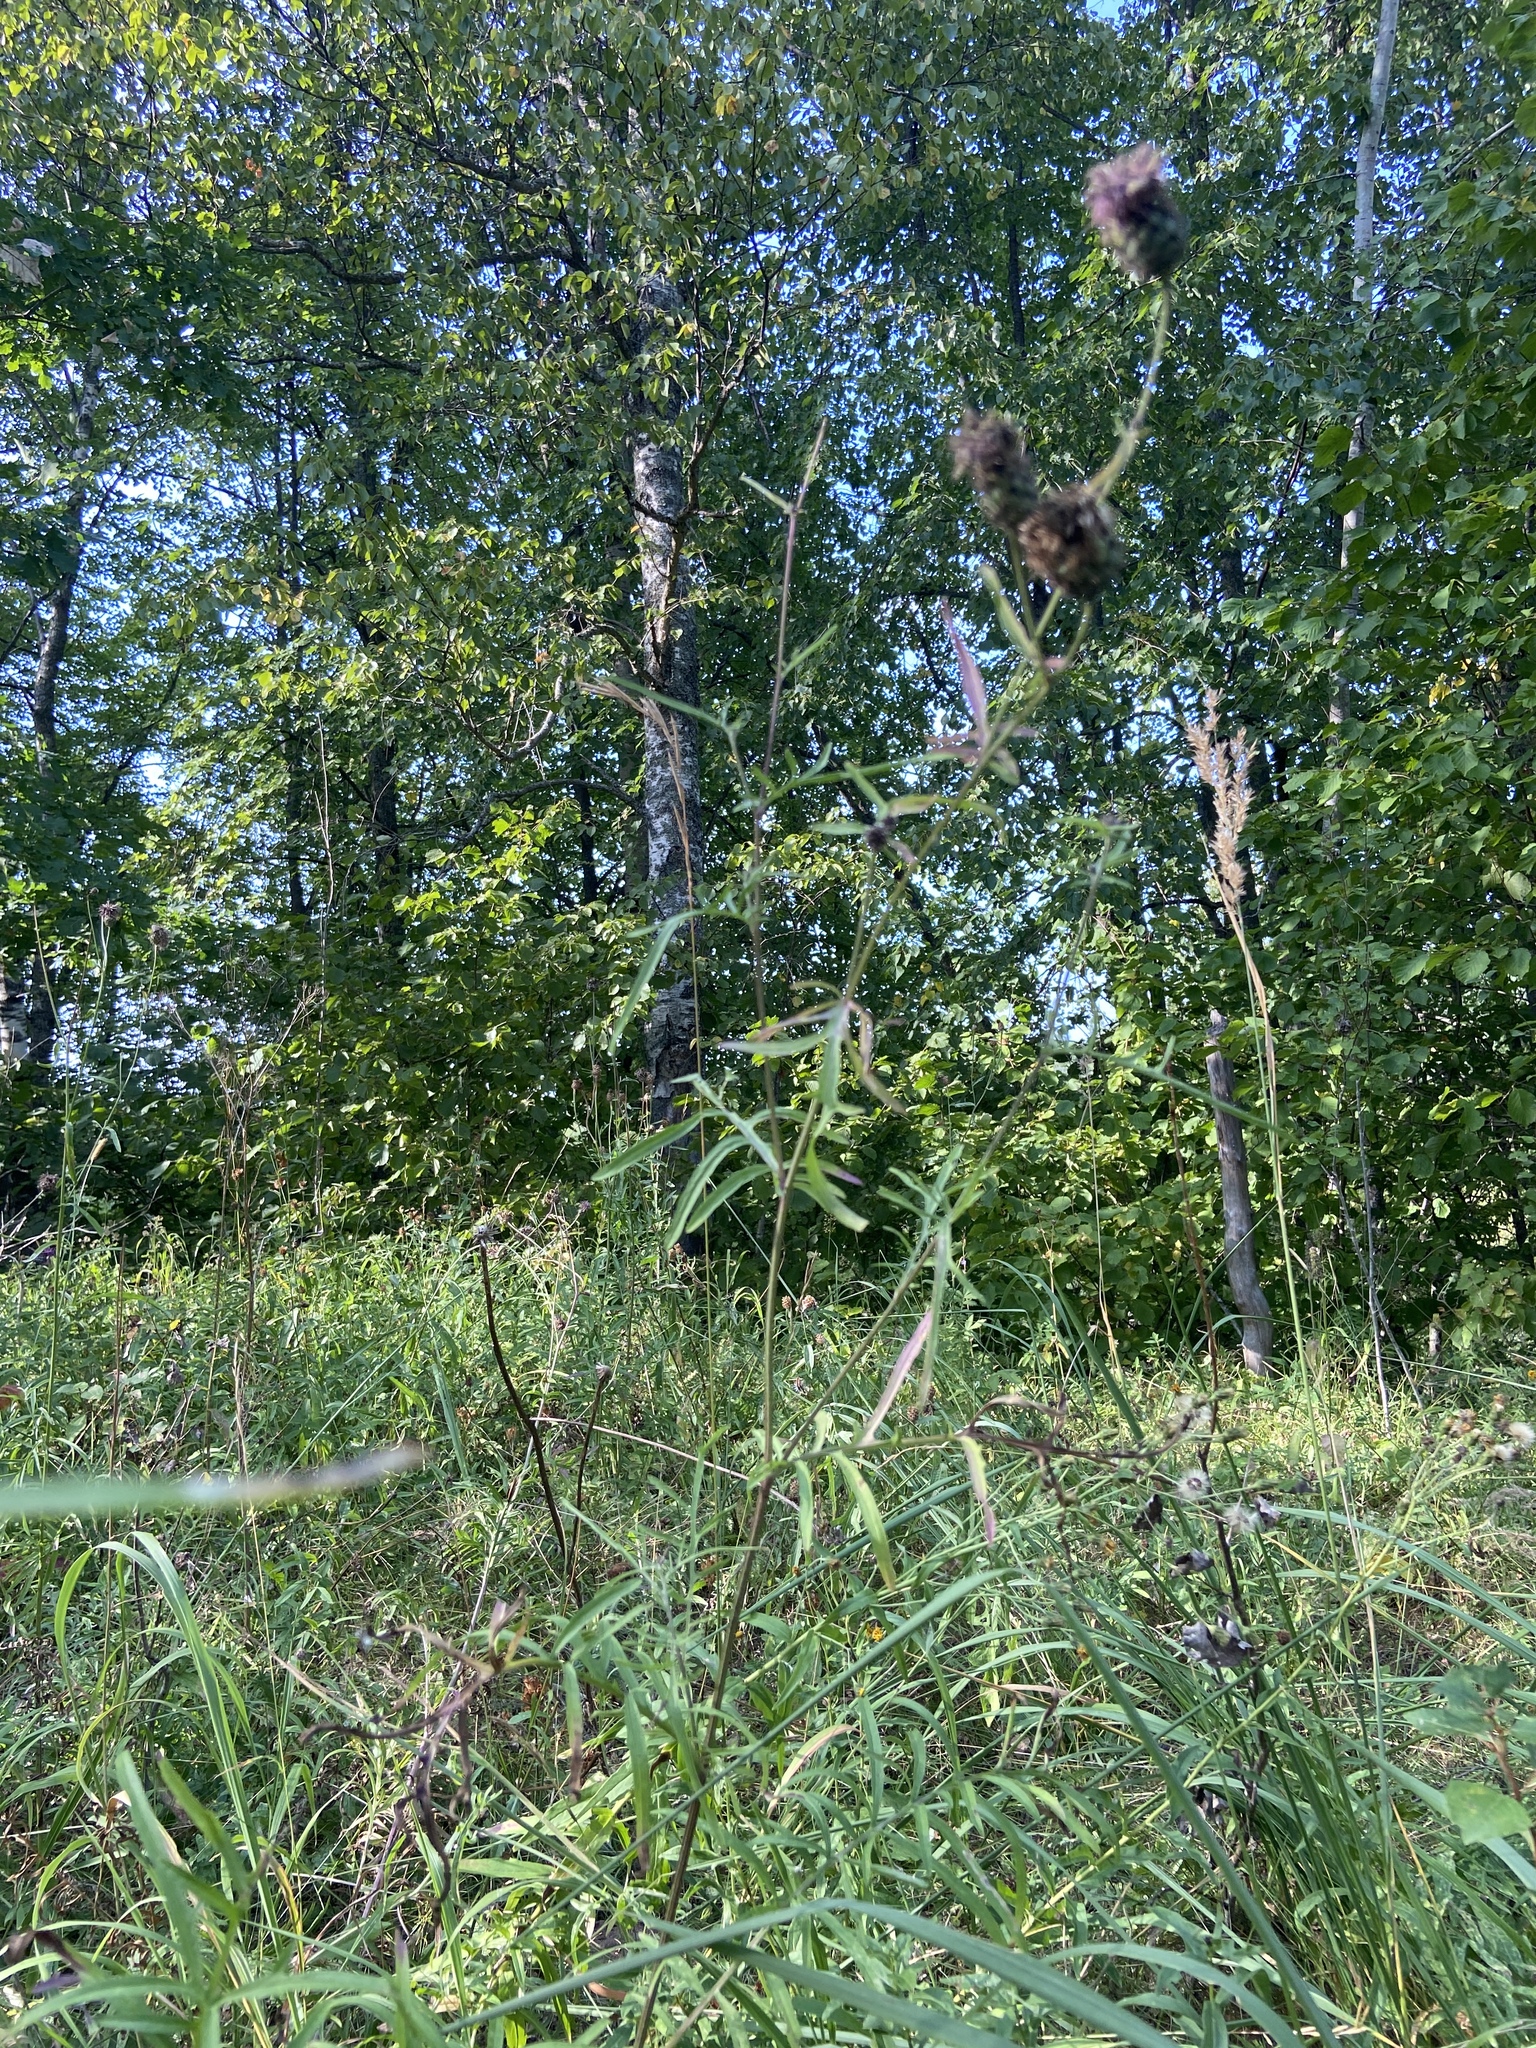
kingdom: Plantae
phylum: Tracheophyta
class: Magnoliopsida
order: Asterales
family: Asteraceae
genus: Centaurea
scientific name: Centaurea scabiosa
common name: Greater knapweed
